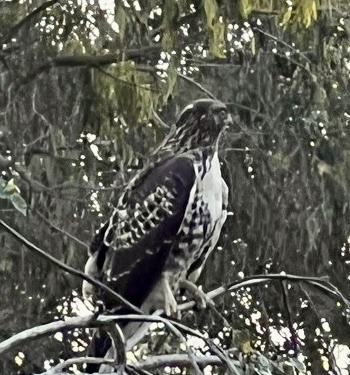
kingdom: Animalia
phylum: Chordata
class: Aves
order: Accipitriformes
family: Accipitridae
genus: Buteo
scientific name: Buteo jamaicensis
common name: Red-tailed hawk
